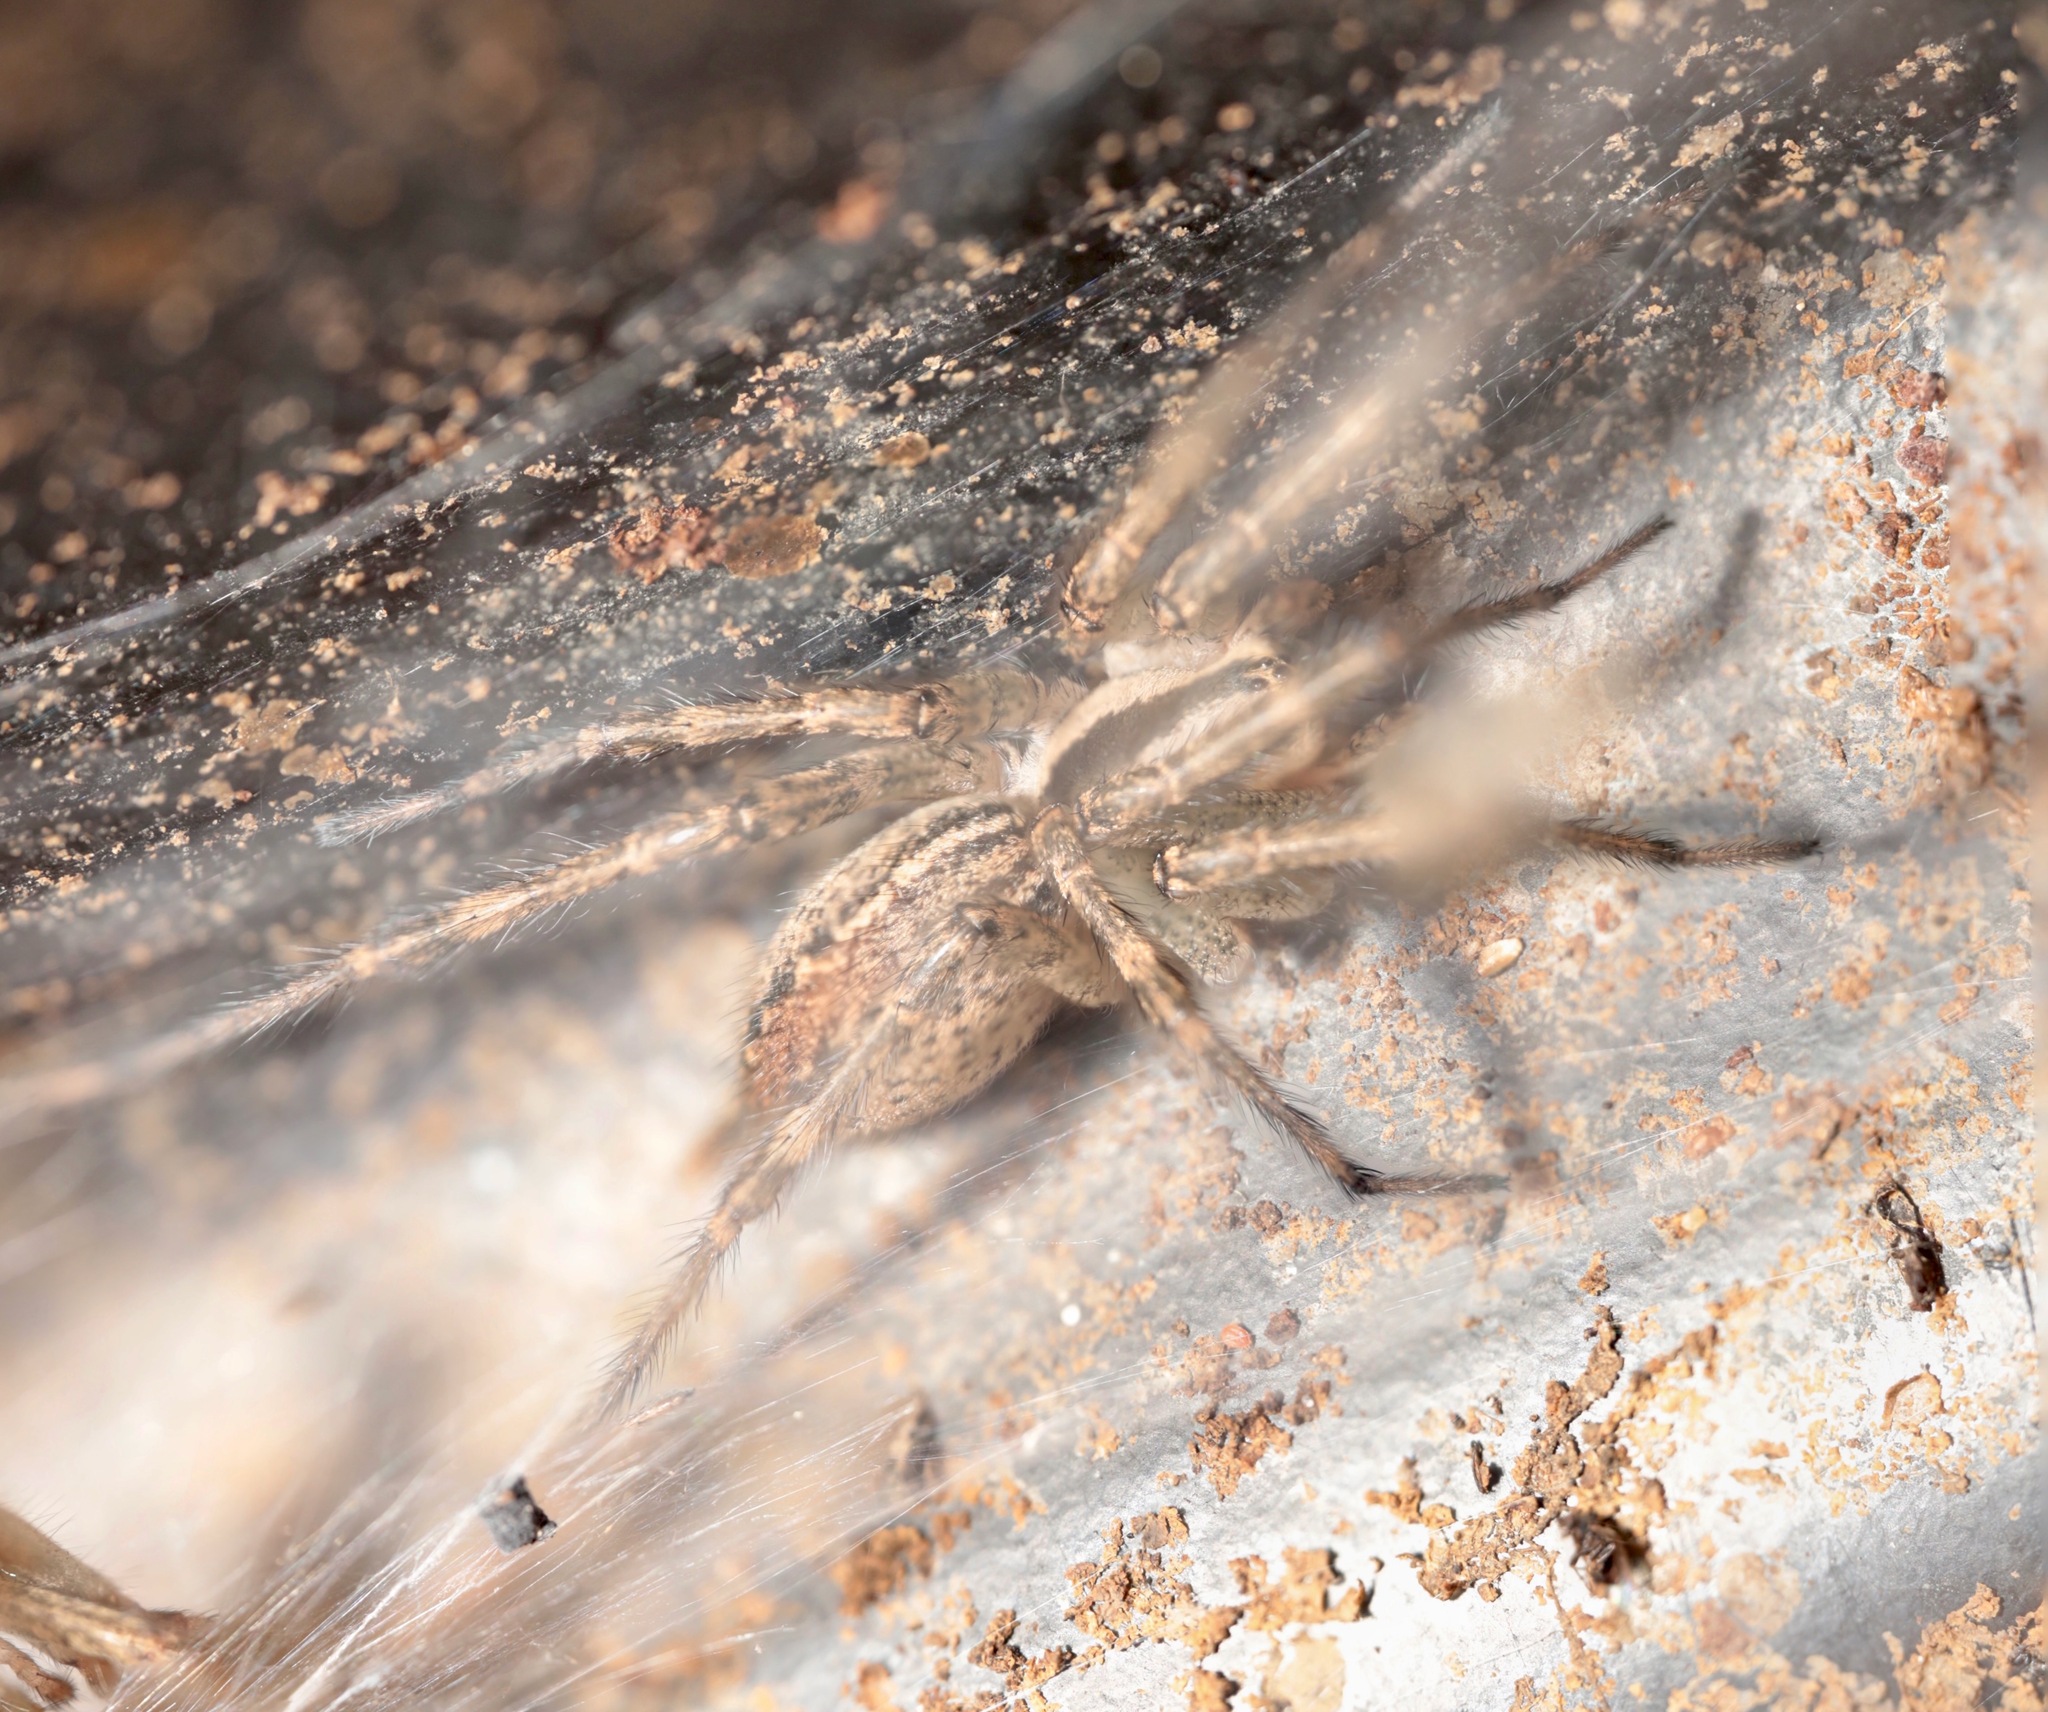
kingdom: Animalia
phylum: Arthropoda
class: Arachnida
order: Araneae
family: Agelenidae
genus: Agelenopsis
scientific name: Agelenopsis
